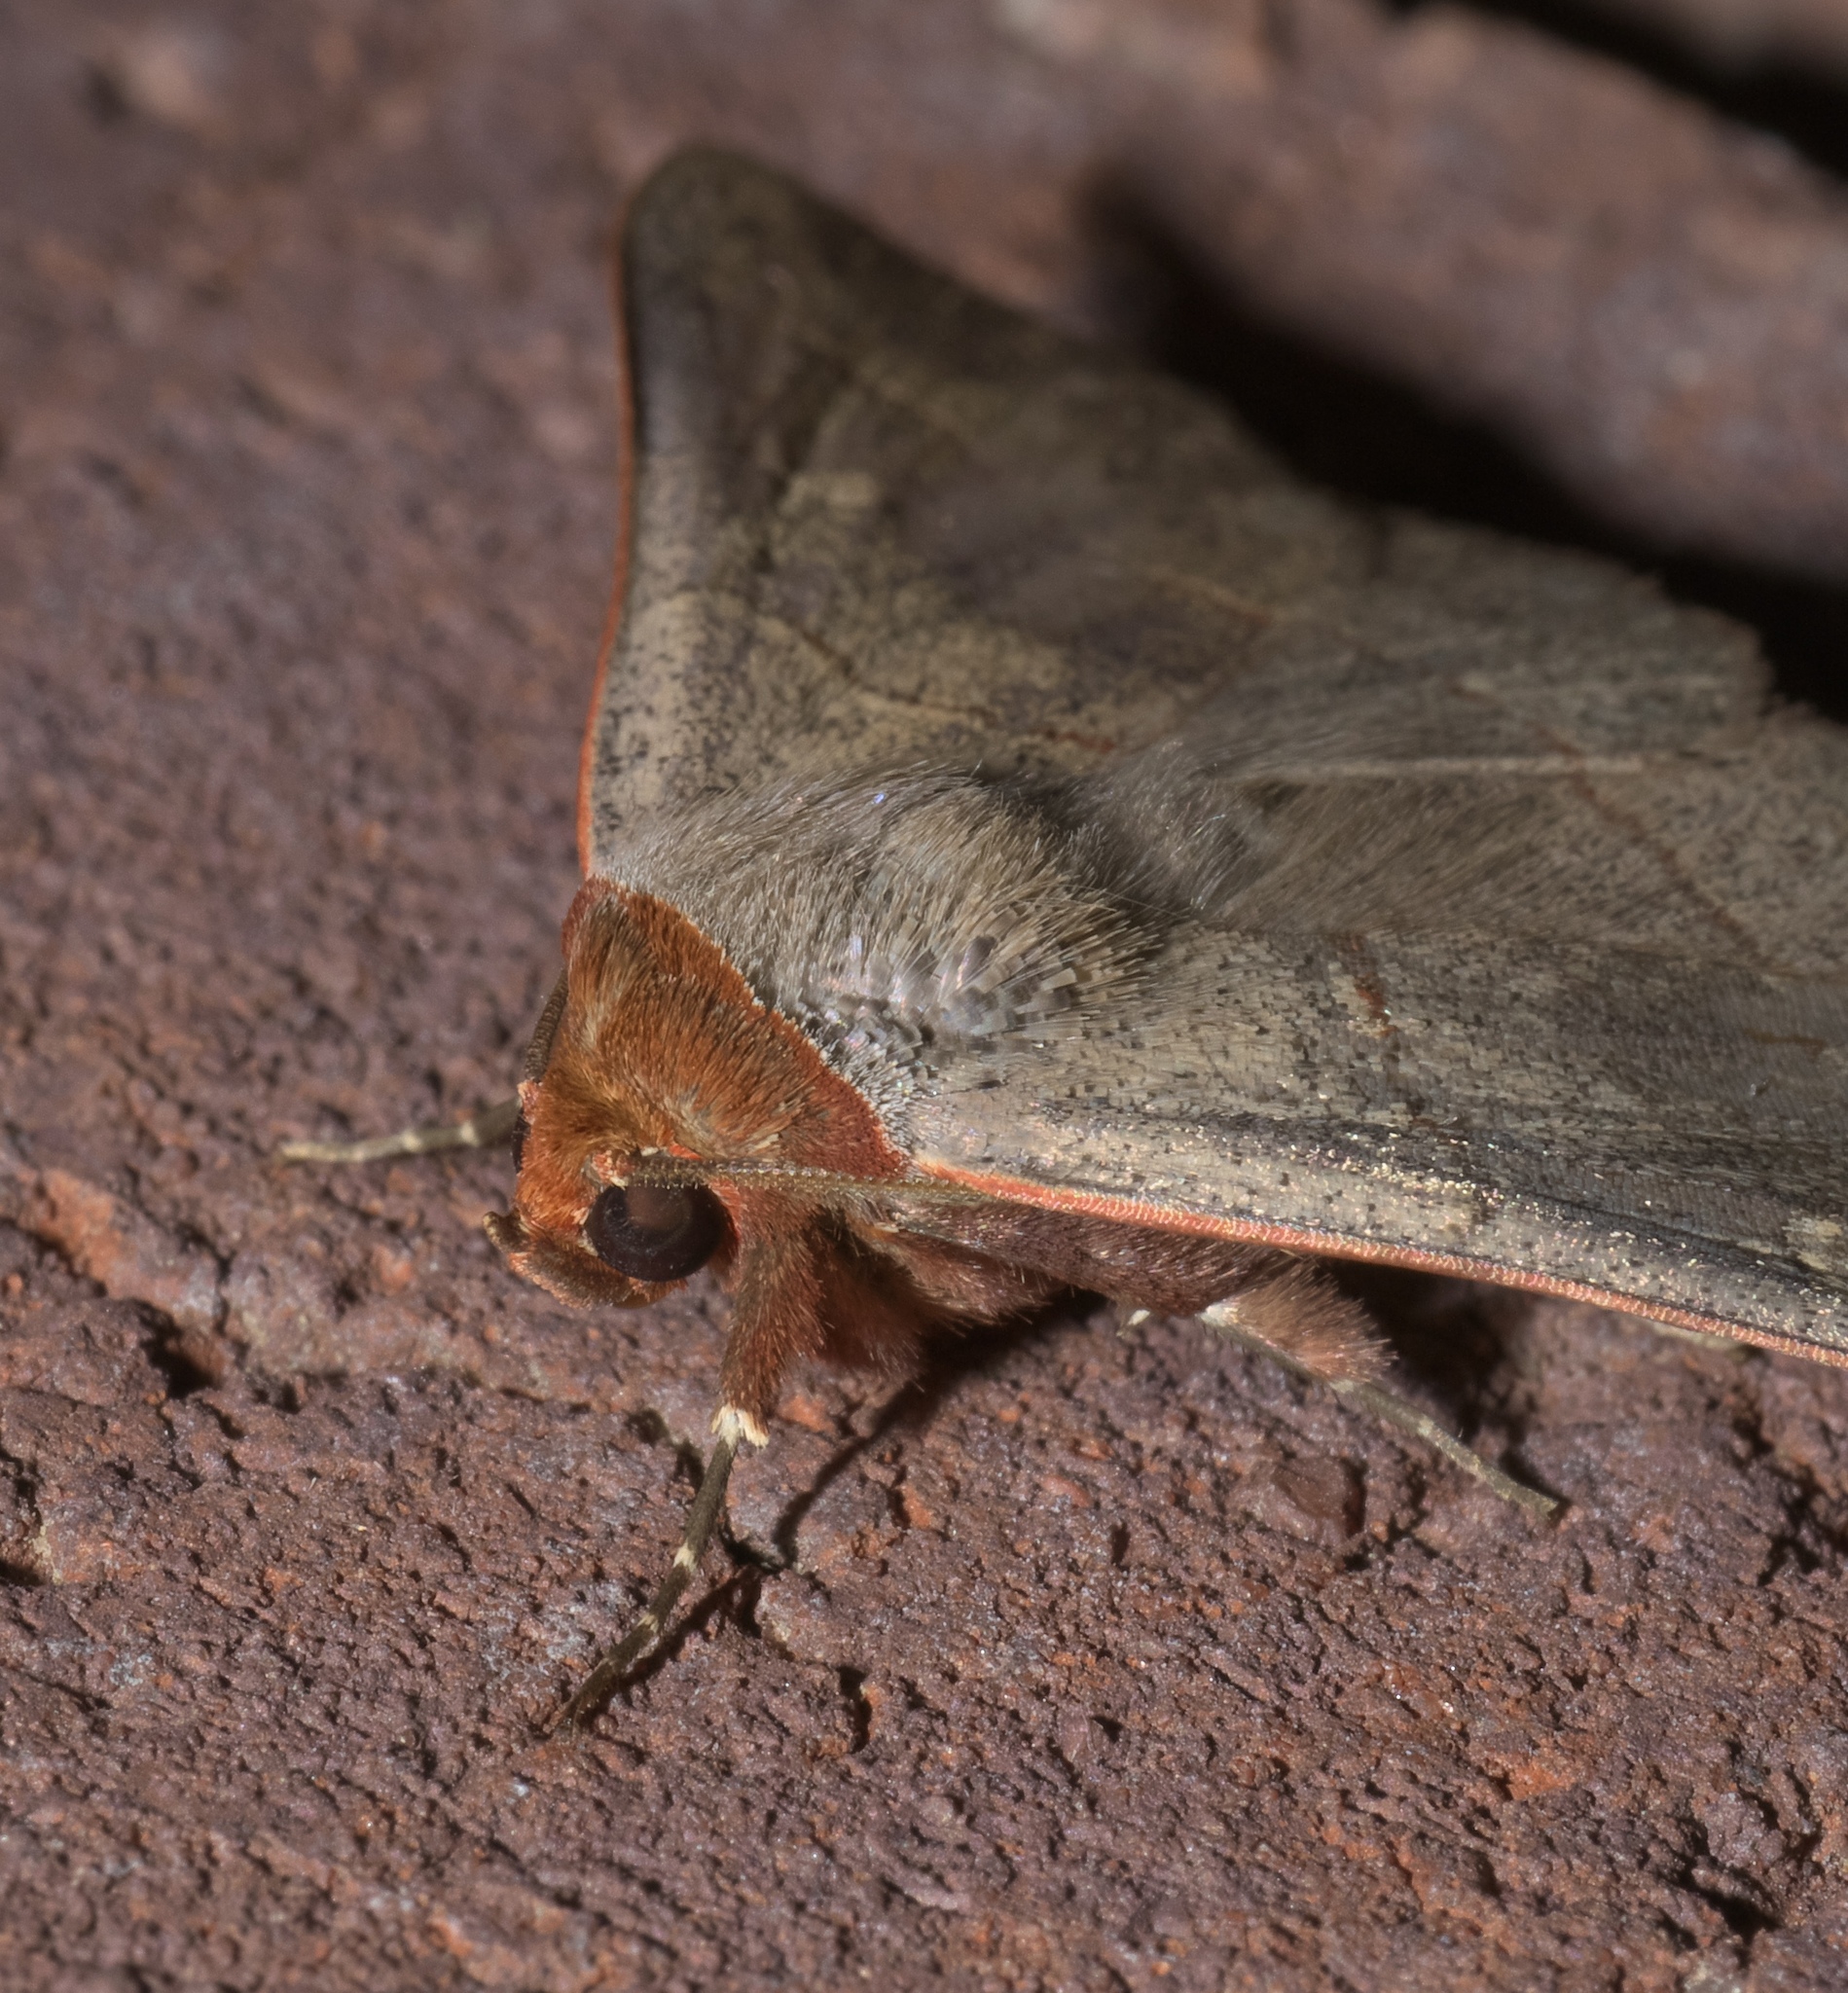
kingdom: Animalia
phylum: Arthropoda
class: Insecta
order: Lepidoptera
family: Erebidae
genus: Panopoda
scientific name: Panopoda rufimargo
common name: Red-lined panopoda moth
